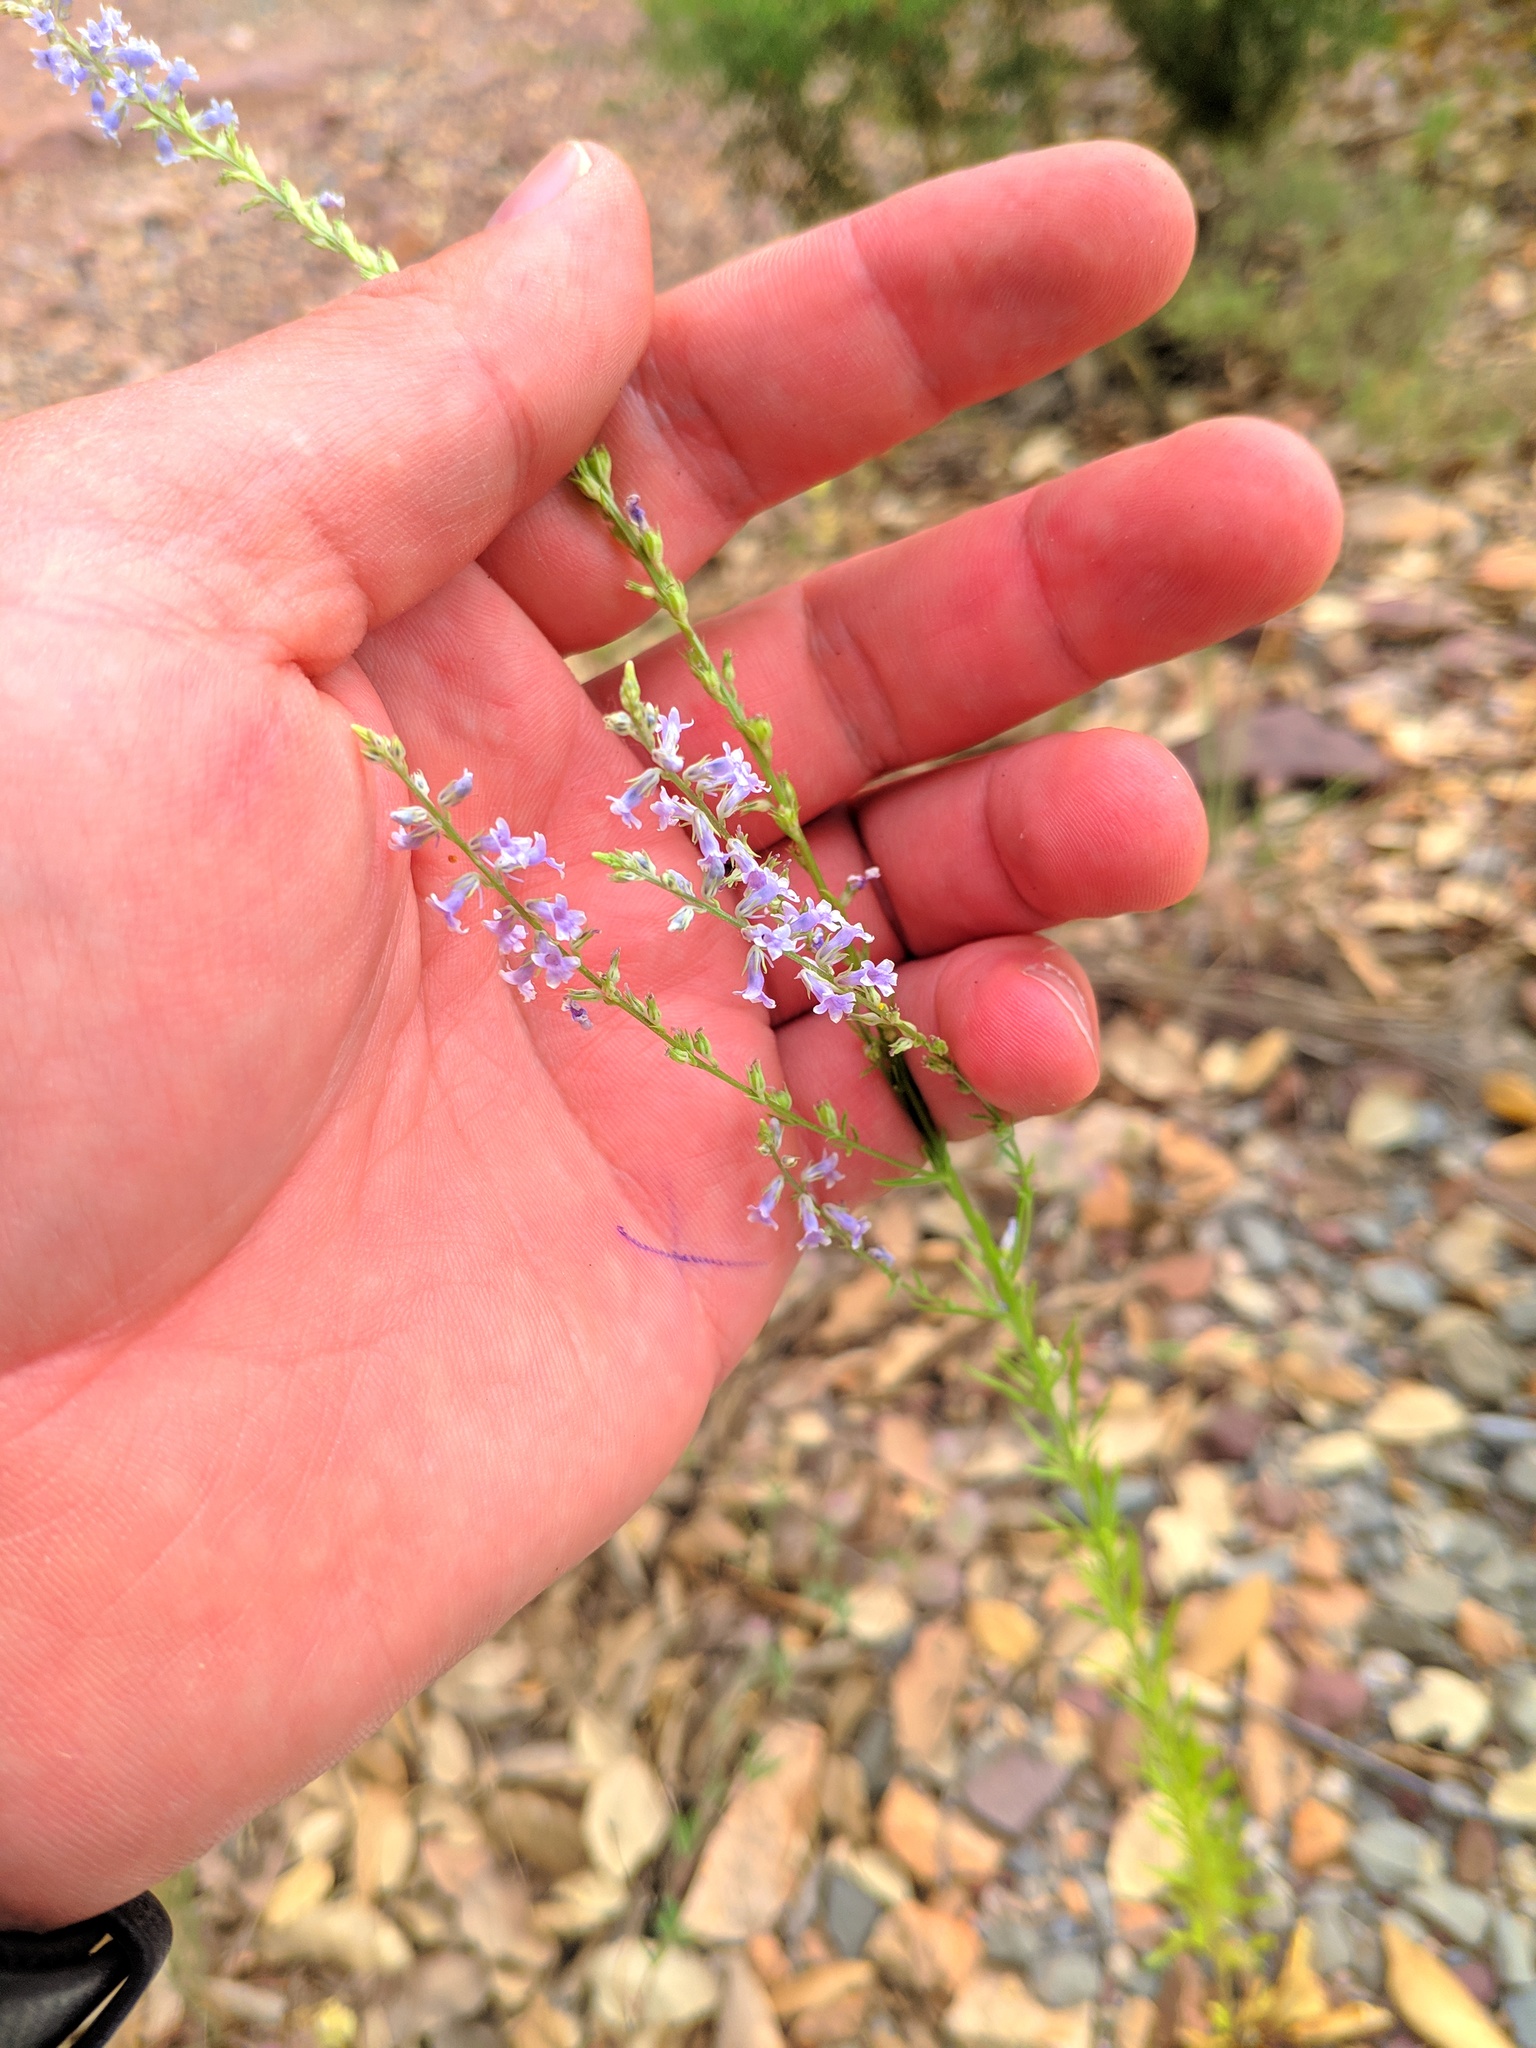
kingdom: Plantae
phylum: Tracheophyta
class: Magnoliopsida
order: Lamiales
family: Plantaginaceae
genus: Anarrhinum
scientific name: Anarrhinum bellidifolium
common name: Daisy-leaved toadflax
